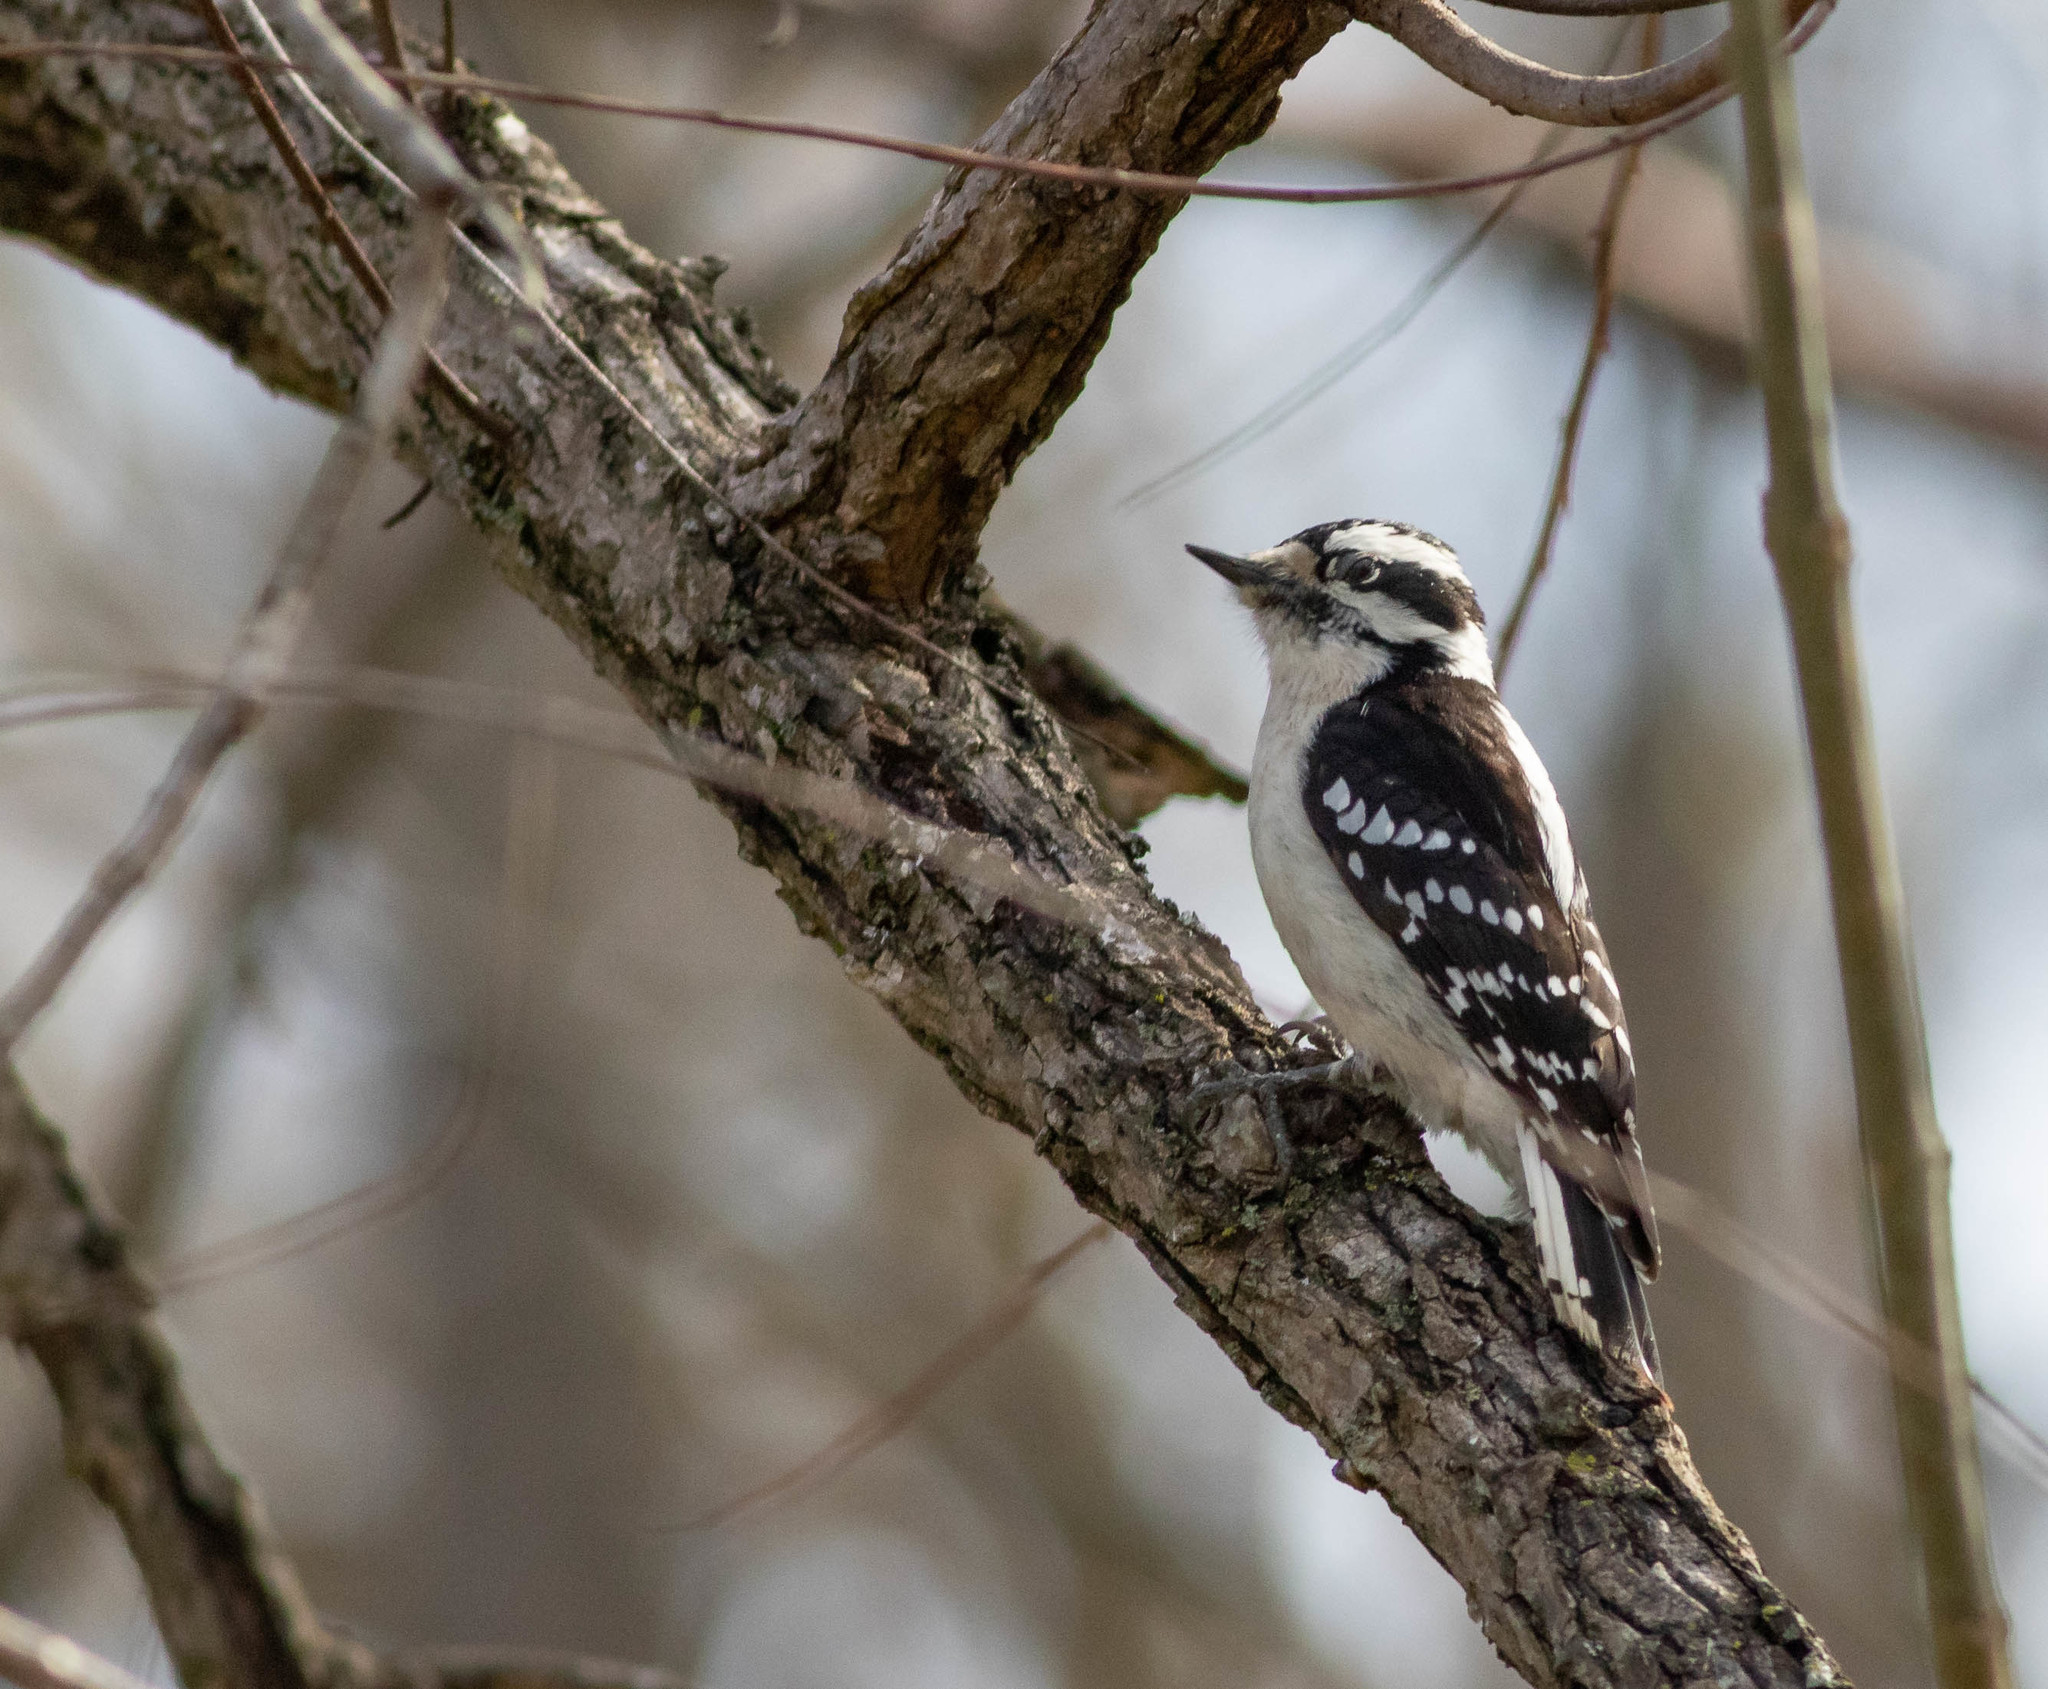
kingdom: Animalia
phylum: Chordata
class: Aves
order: Piciformes
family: Picidae
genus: Dryobates
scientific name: Dryobates pubescens
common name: Downy woodpecker
